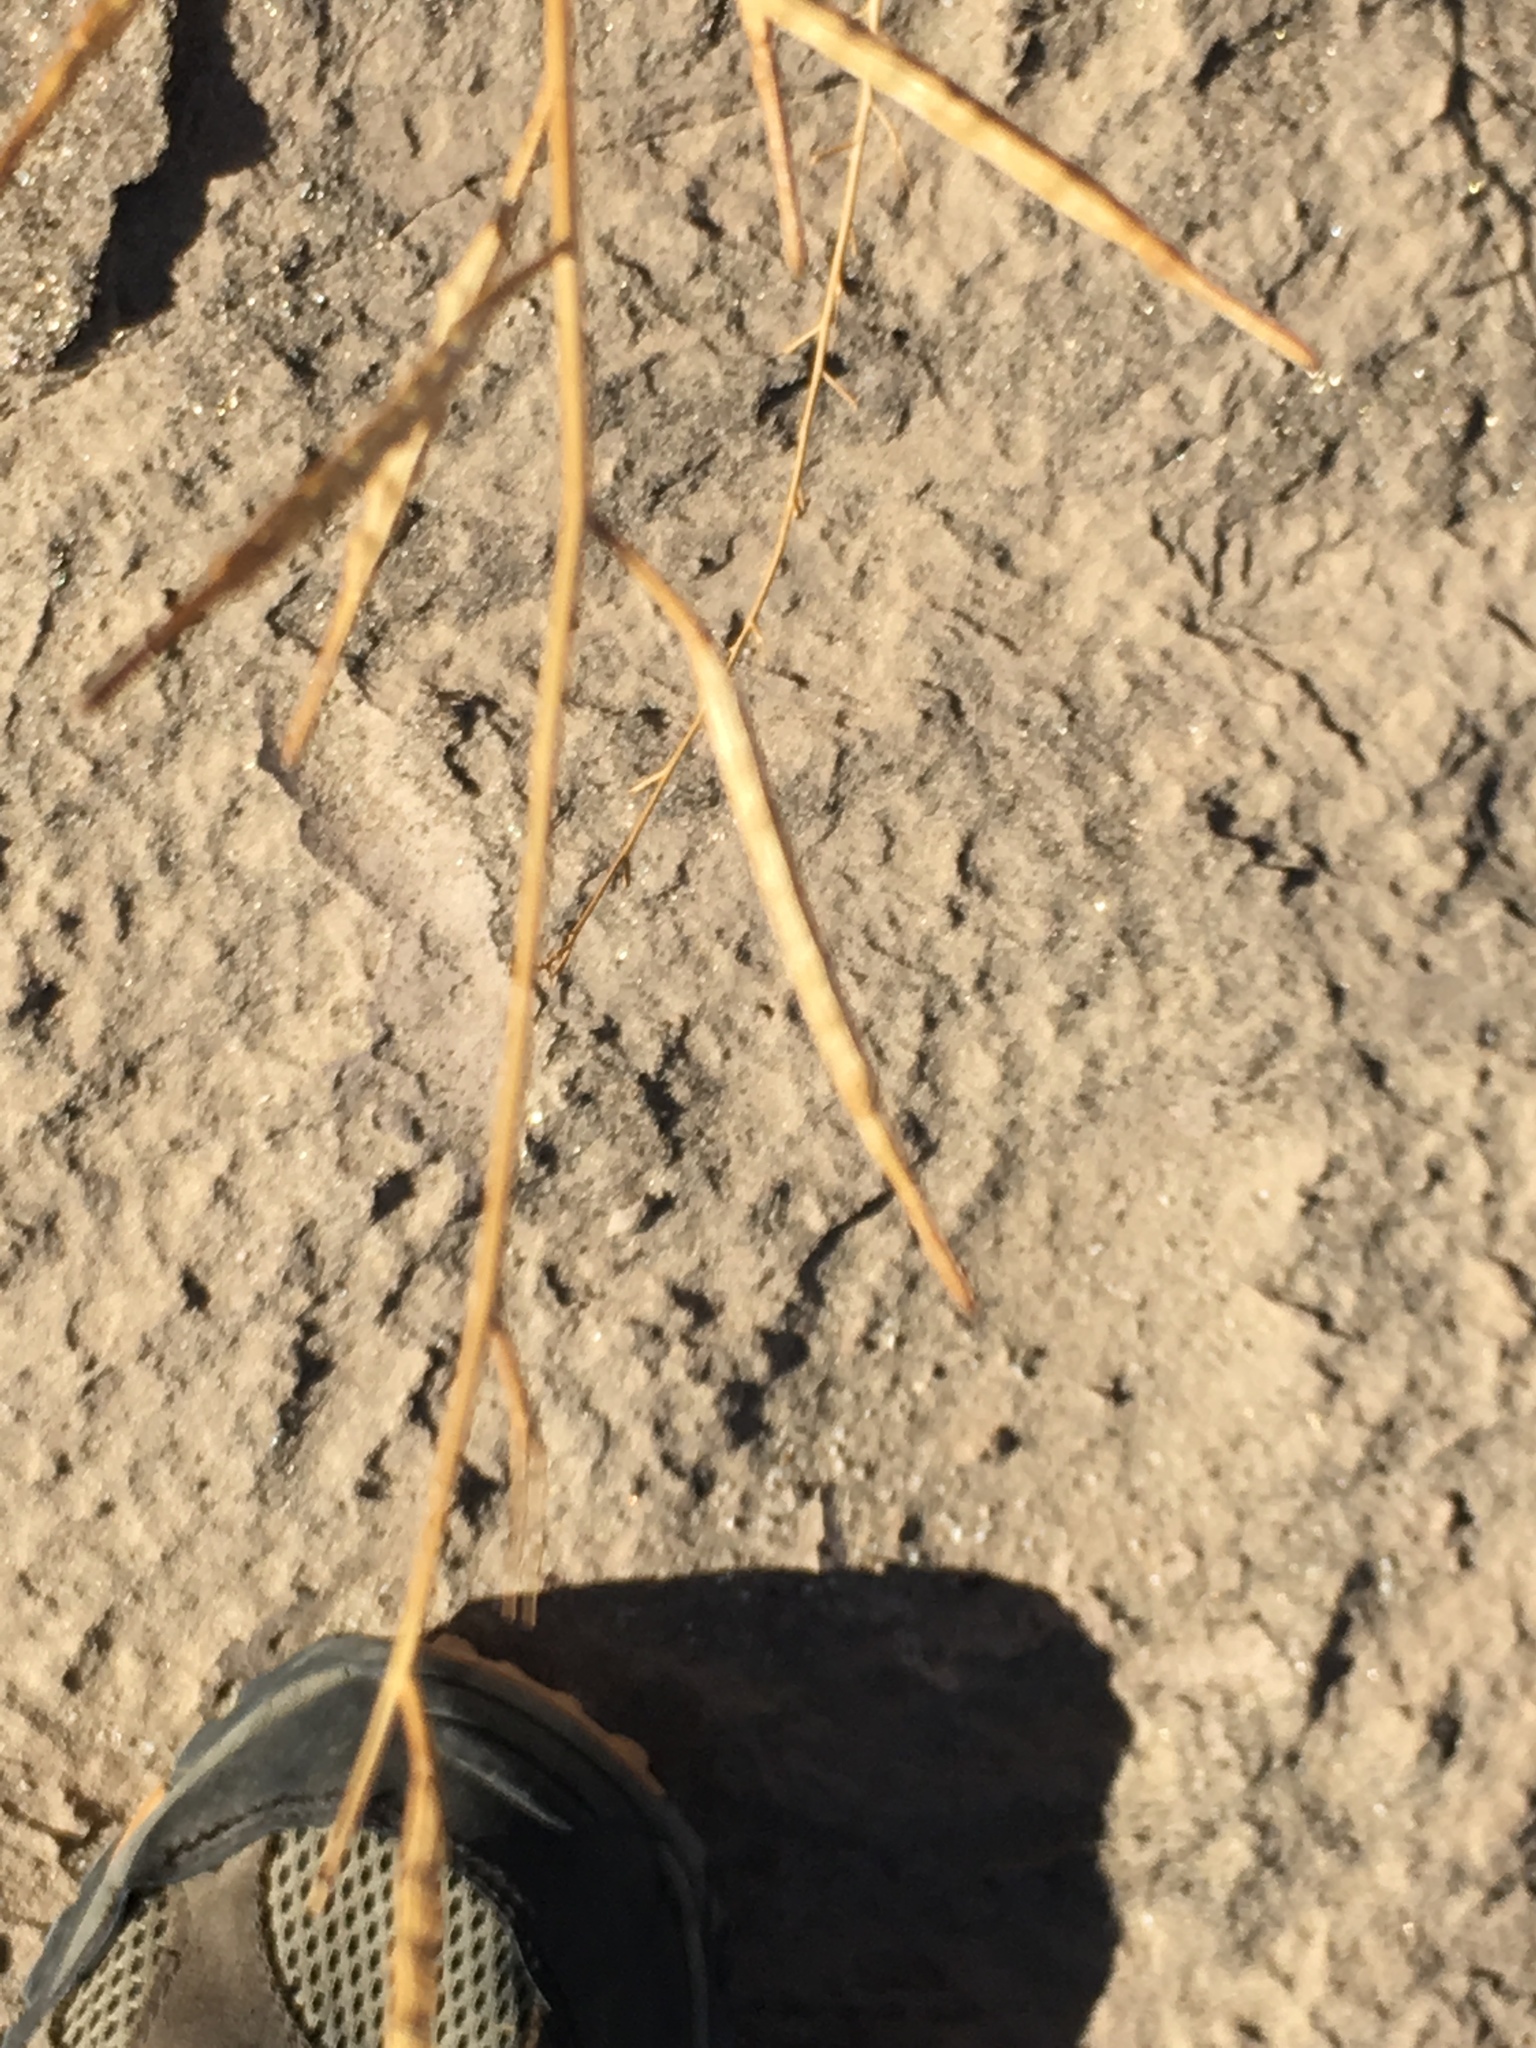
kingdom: Plantae
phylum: Tracheophyta
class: Magnoliopsida
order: Brassicales
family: Brassicaceae
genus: Brassica
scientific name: Brassica tournefortii
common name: Pale cabbage
